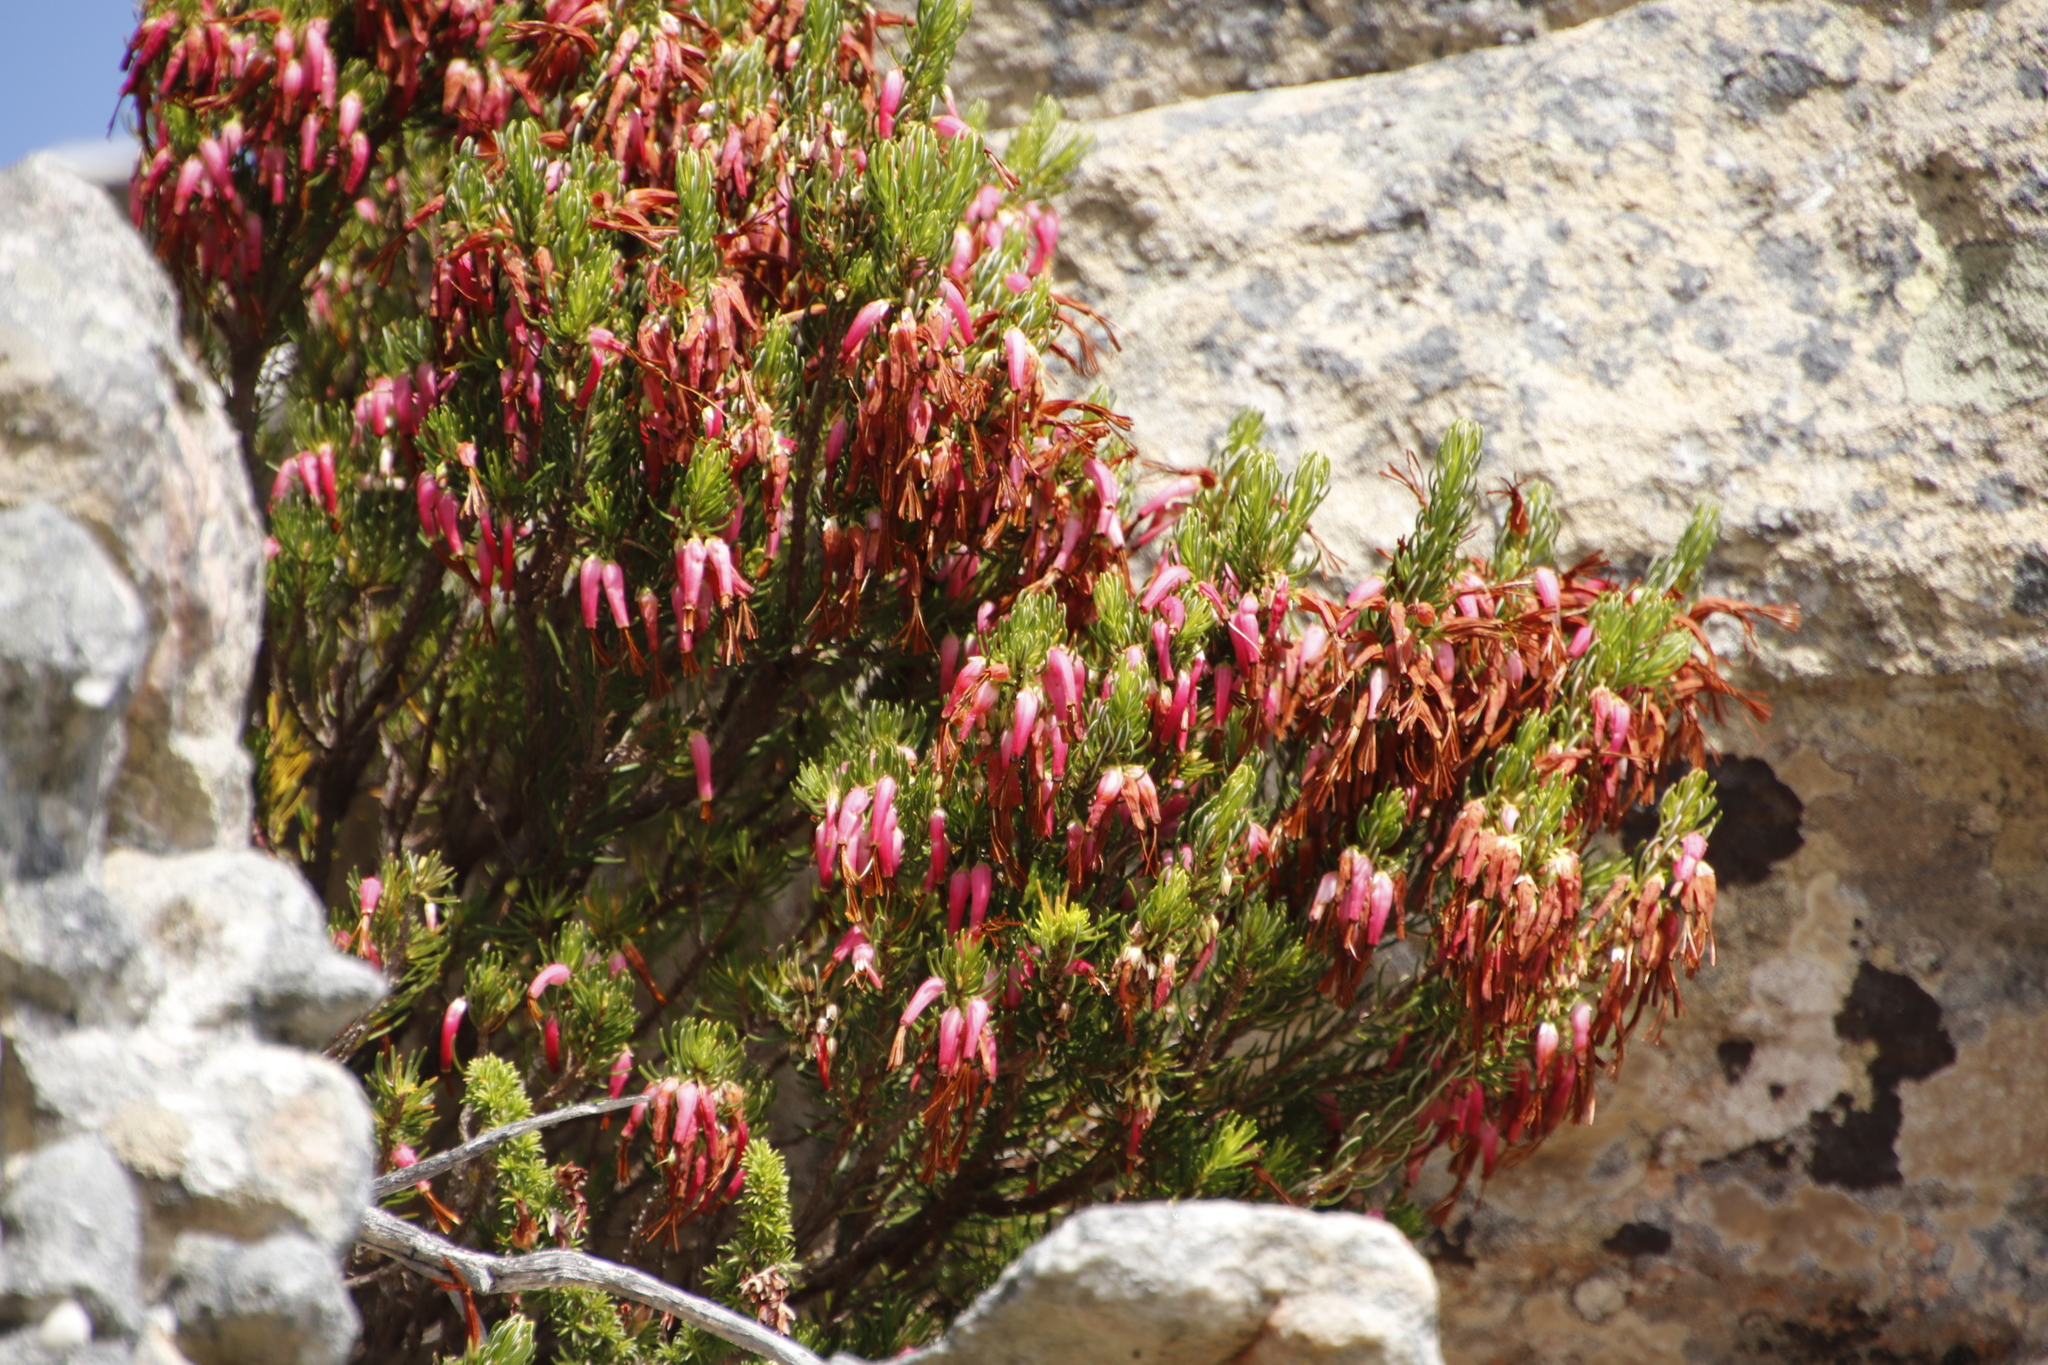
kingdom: Plantae
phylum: Tracheophyta
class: Magnoliopsida
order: Ericales
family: Ericaceae
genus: Erica
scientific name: Erica plukenetii
